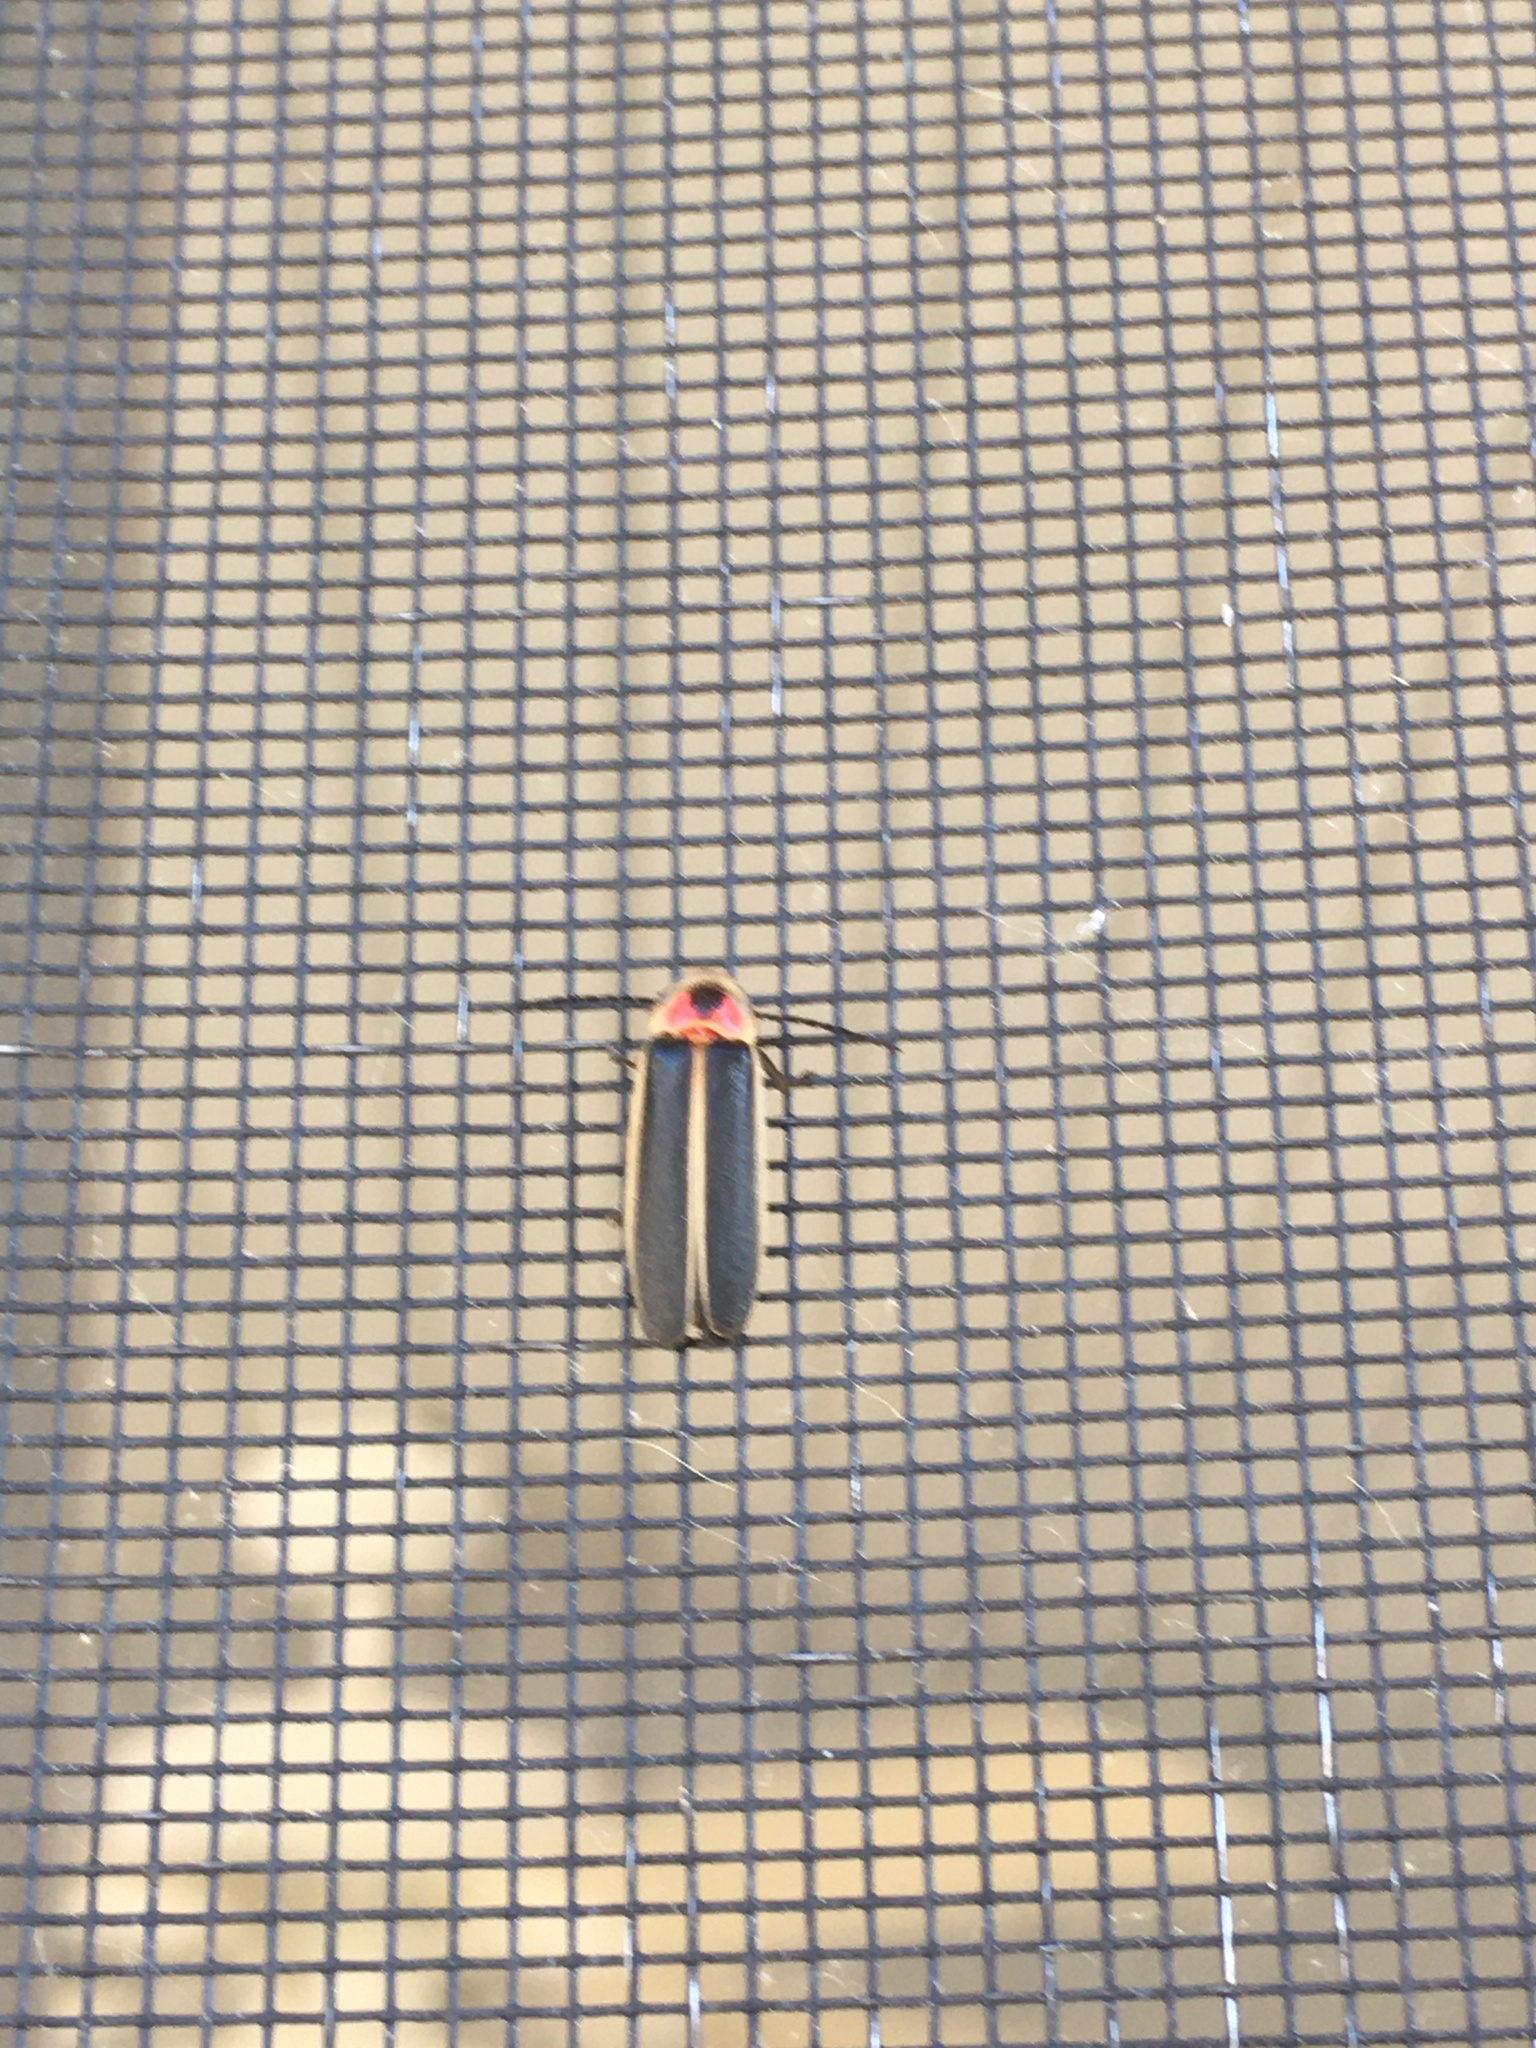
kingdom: Animalia
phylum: Arthropoda
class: Insecta
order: Coleoptera
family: Lampyridae
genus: Photinus
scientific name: Photinus pyralis
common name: Big dipper firefly
